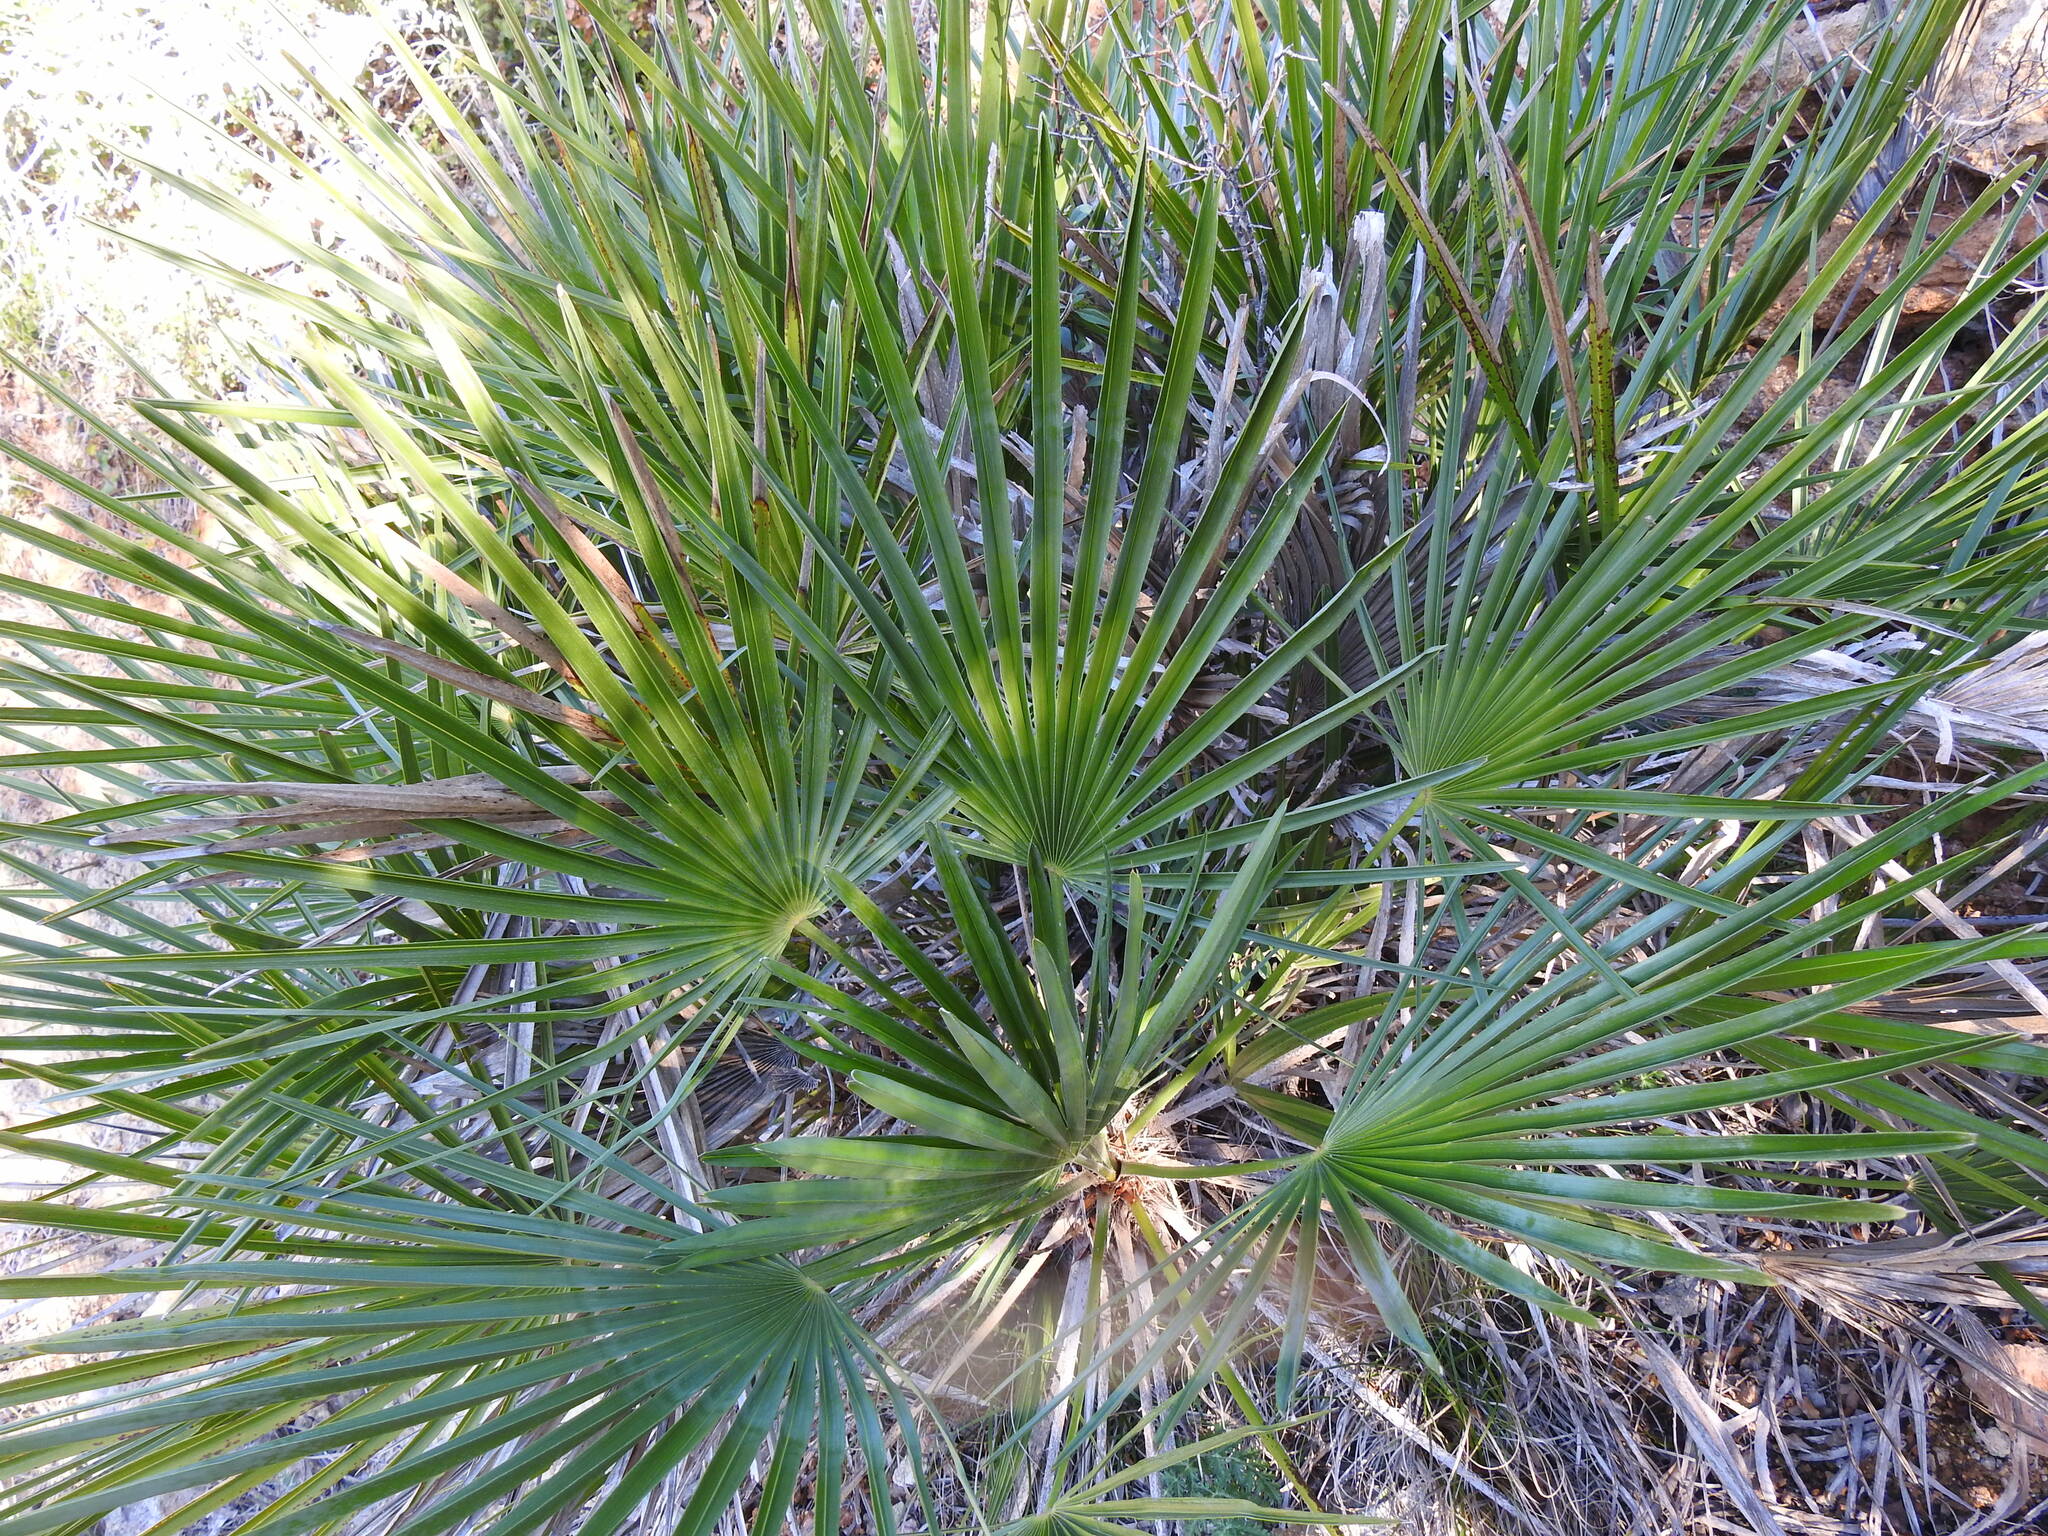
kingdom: Plantae
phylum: Tracheophyta
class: Liliopsida
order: Arecales
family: Arecaceae
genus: Chamaerops
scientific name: Chamaerops humilis
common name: Dwarf fan palm
